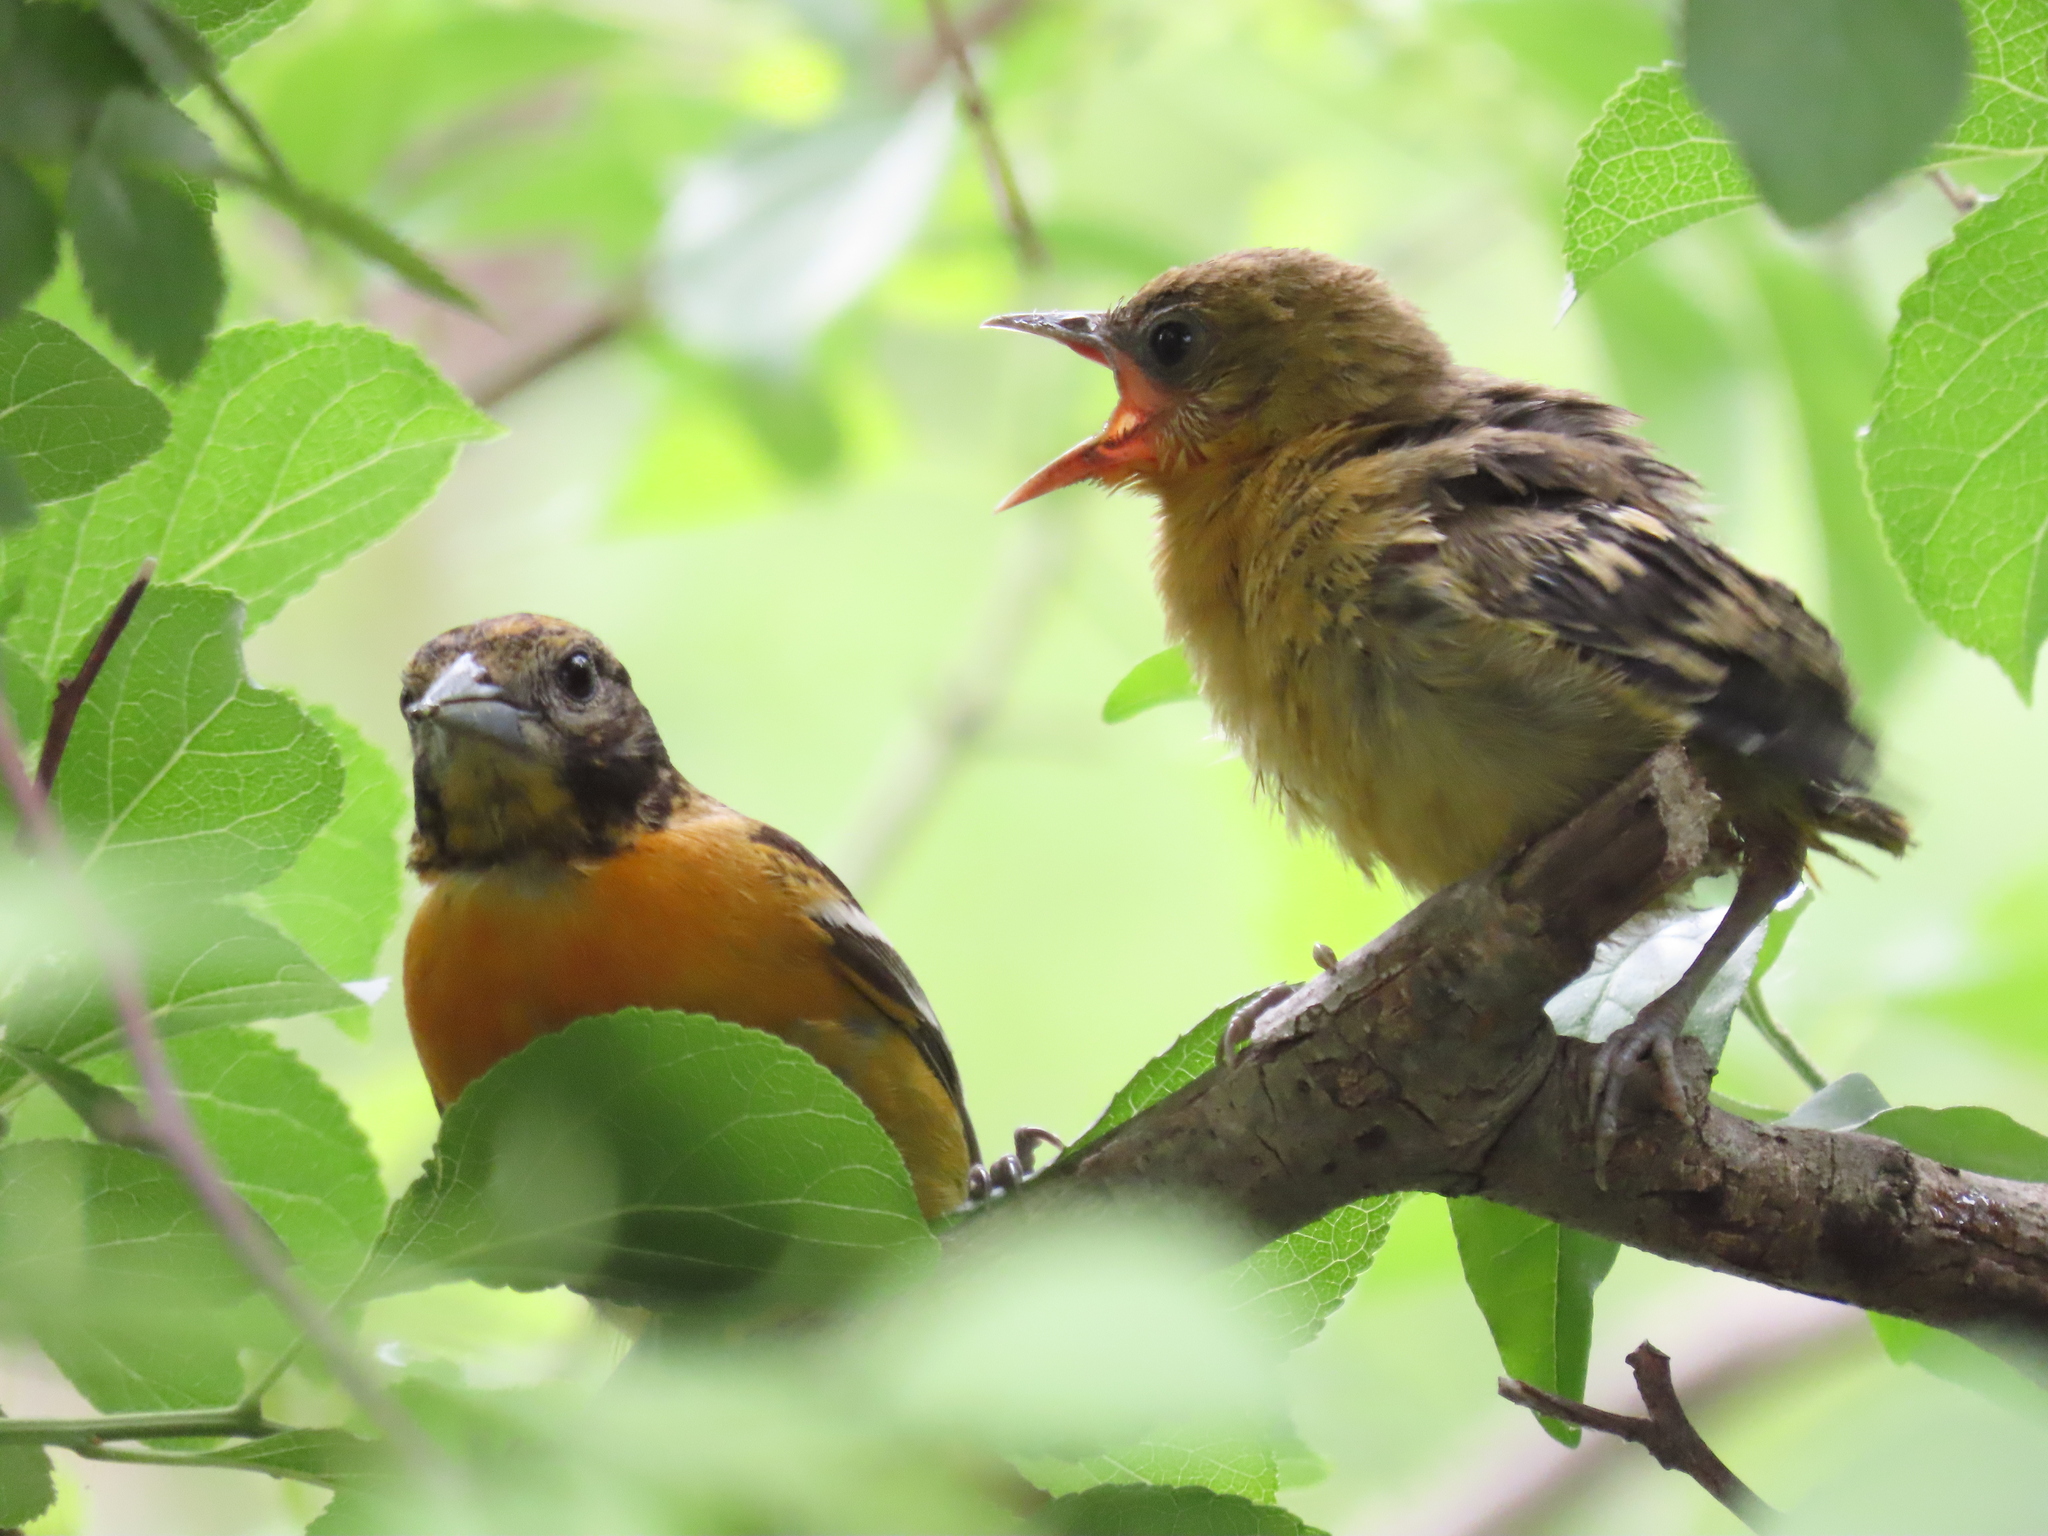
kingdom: Animalia
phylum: Chordata
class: Aves
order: Passeriformes
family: Icteridae
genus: Icterus
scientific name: Icterus galbula
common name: Baltimore oriole
